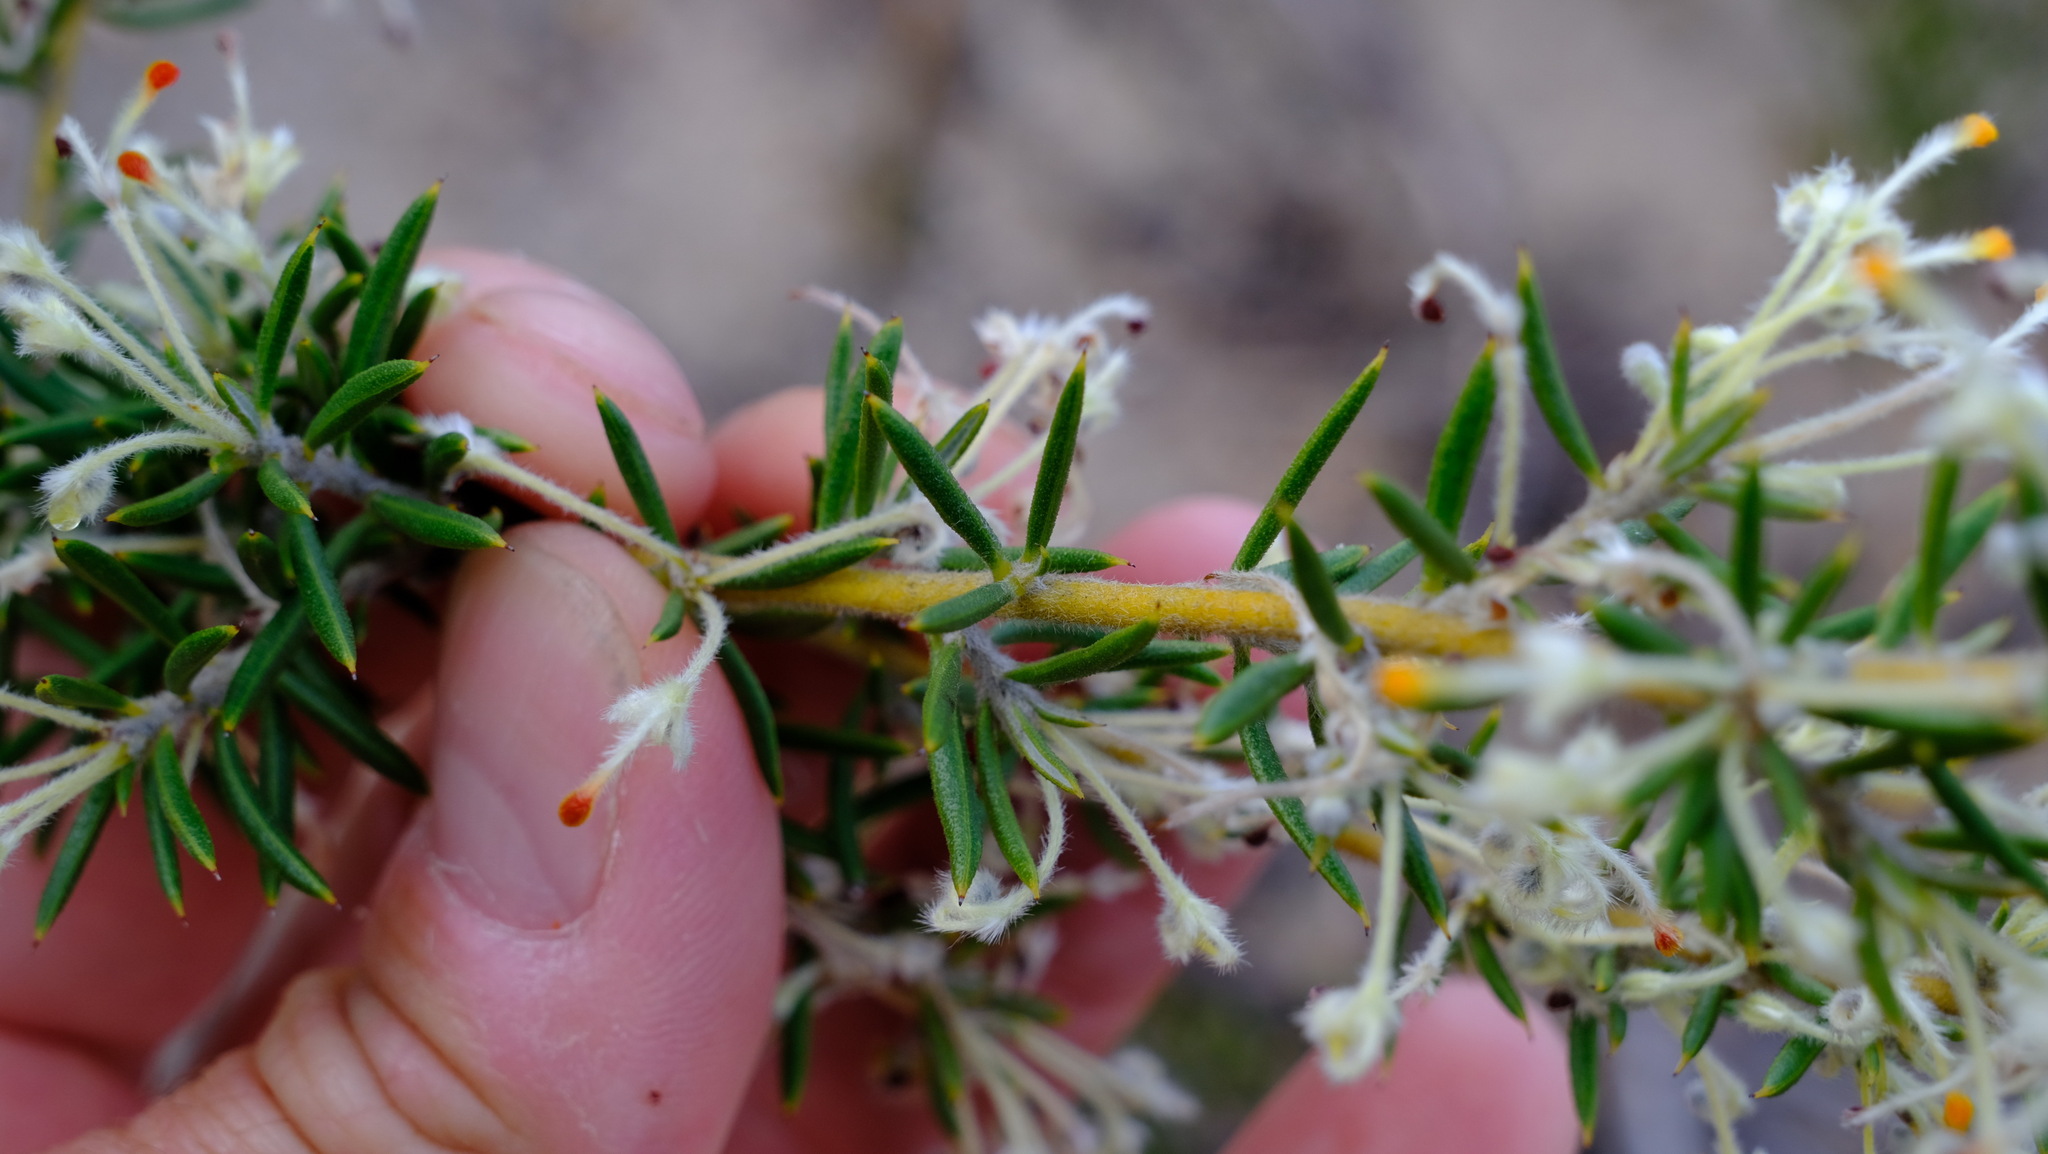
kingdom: Plantae
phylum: Tracheophyta
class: Magnoliopsida
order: Proteales
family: Proteaceae
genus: Grevillea
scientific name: Grevillea pilulifera
